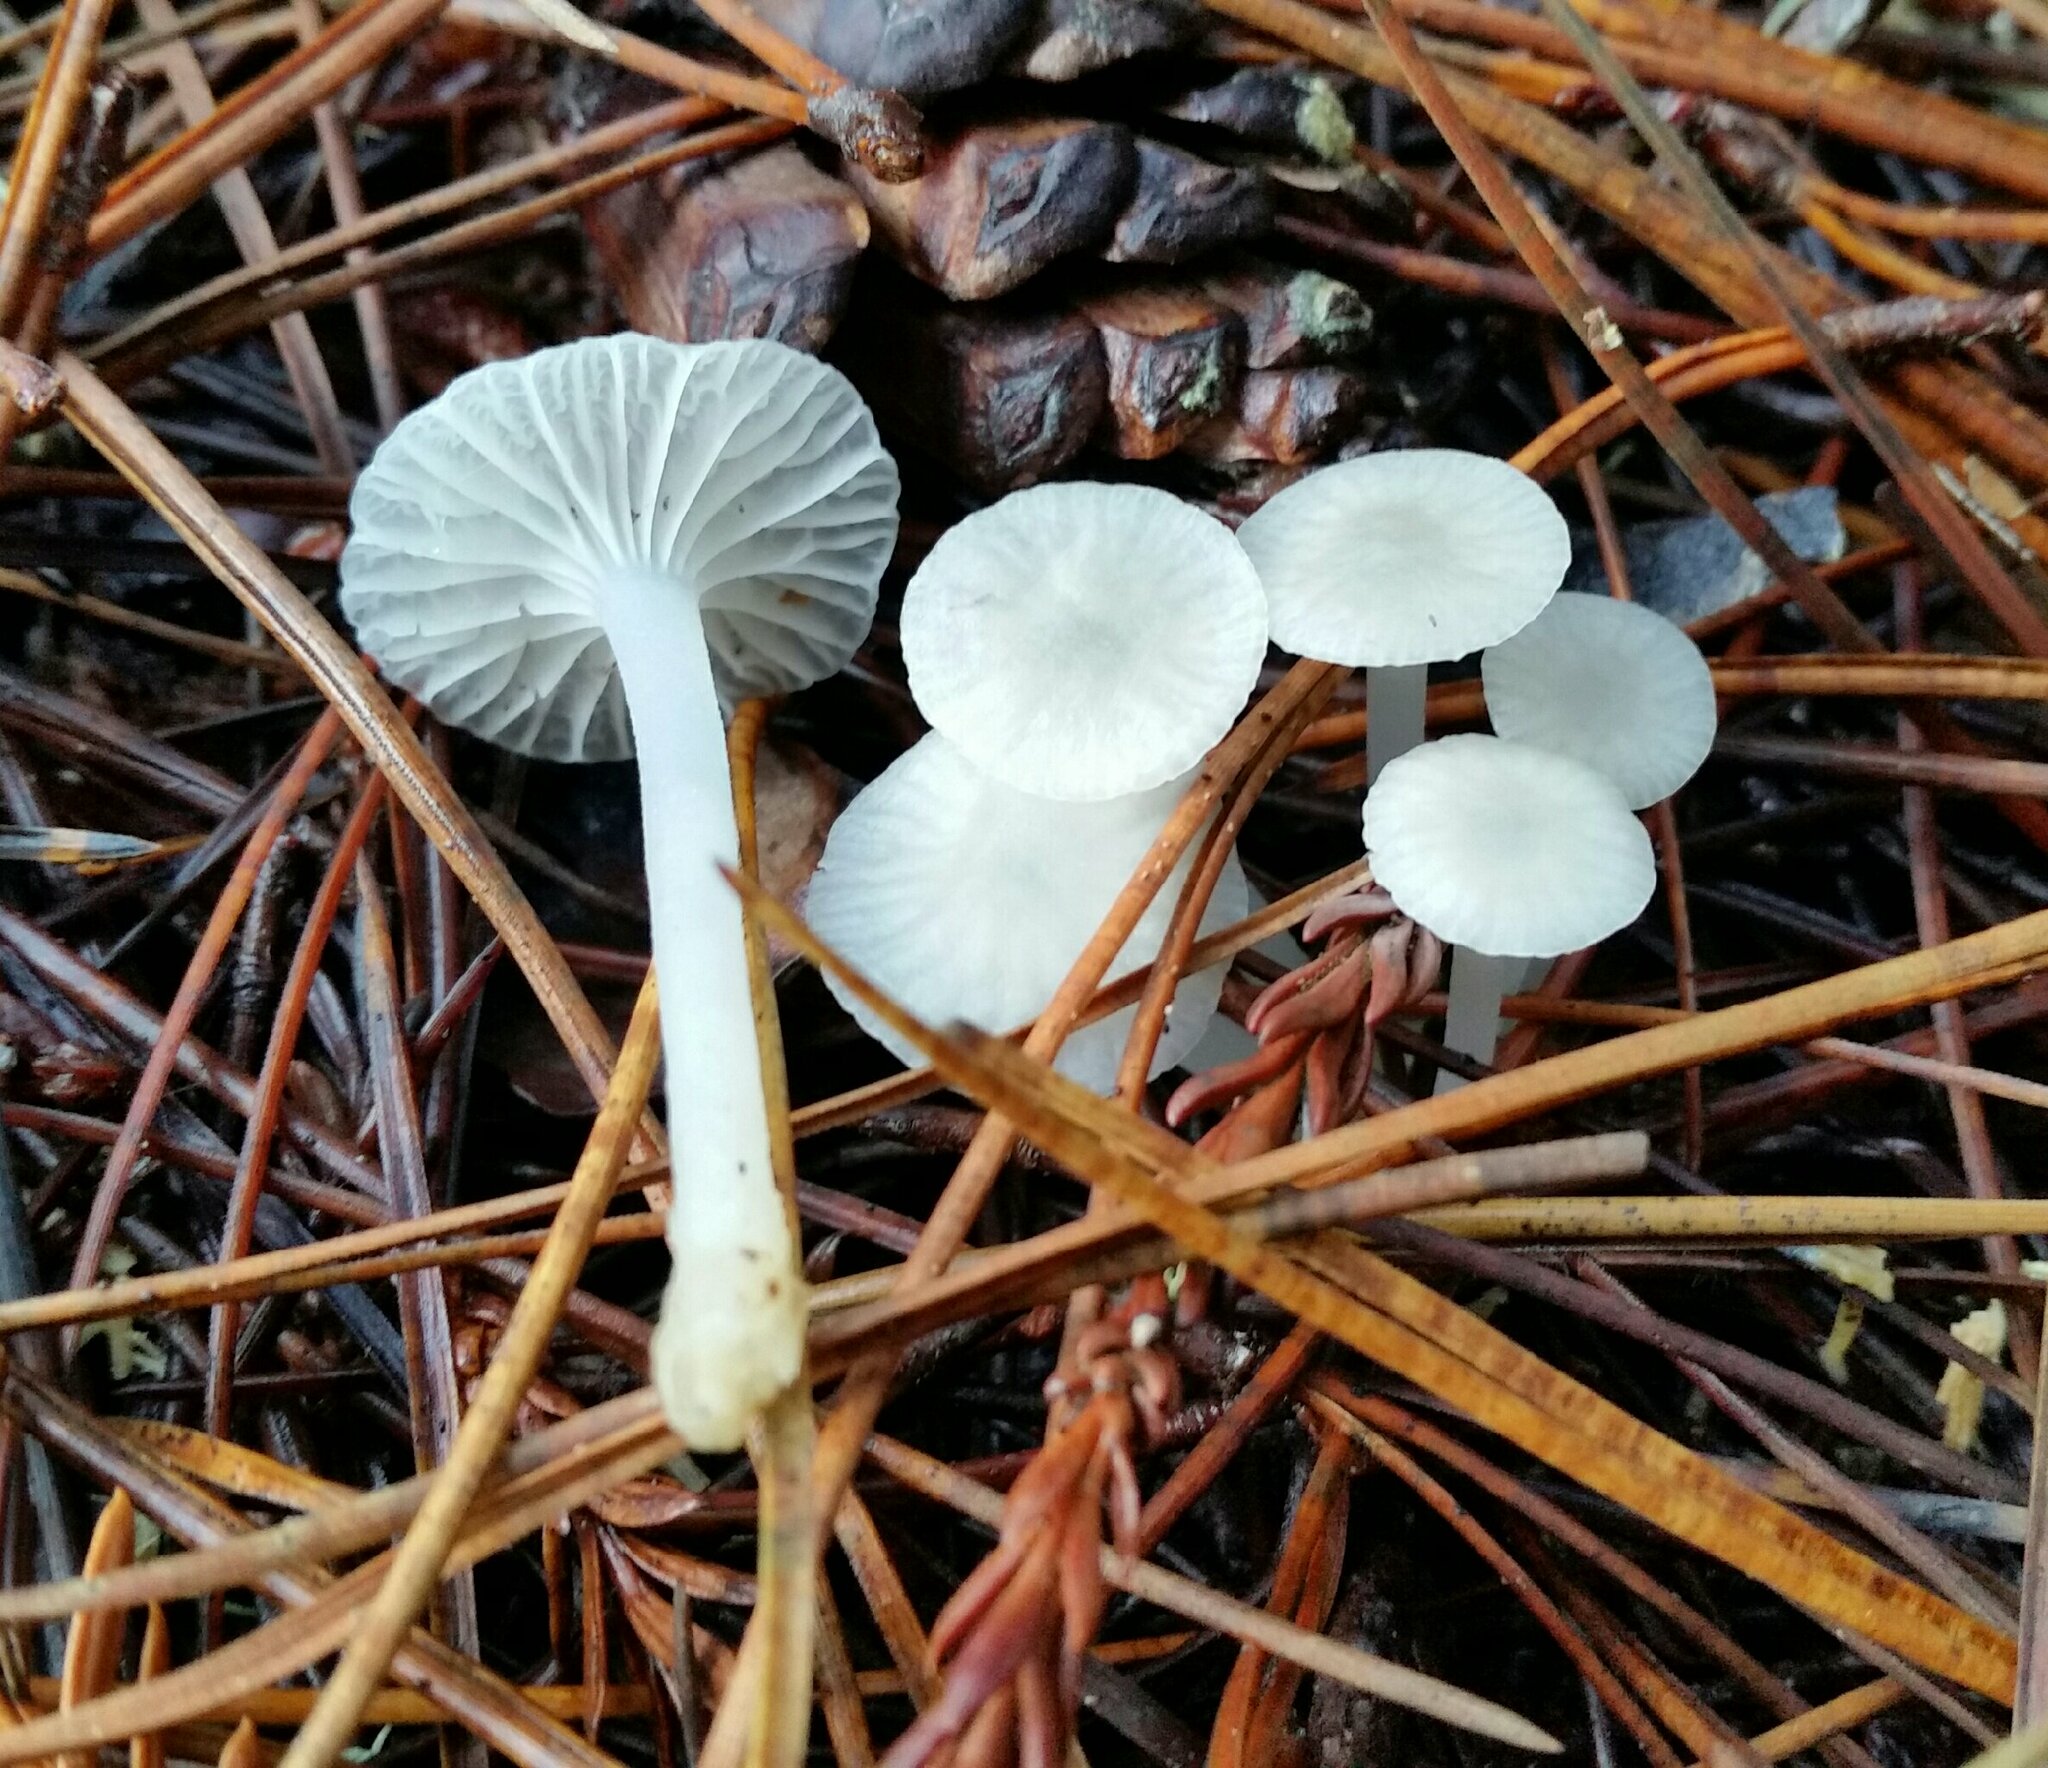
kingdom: Fungi
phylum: Basidiomycota
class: Agaricomycetes
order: Agaricales
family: Marasmiaceae
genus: Marasmius
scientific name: Marasmius calhouniae
